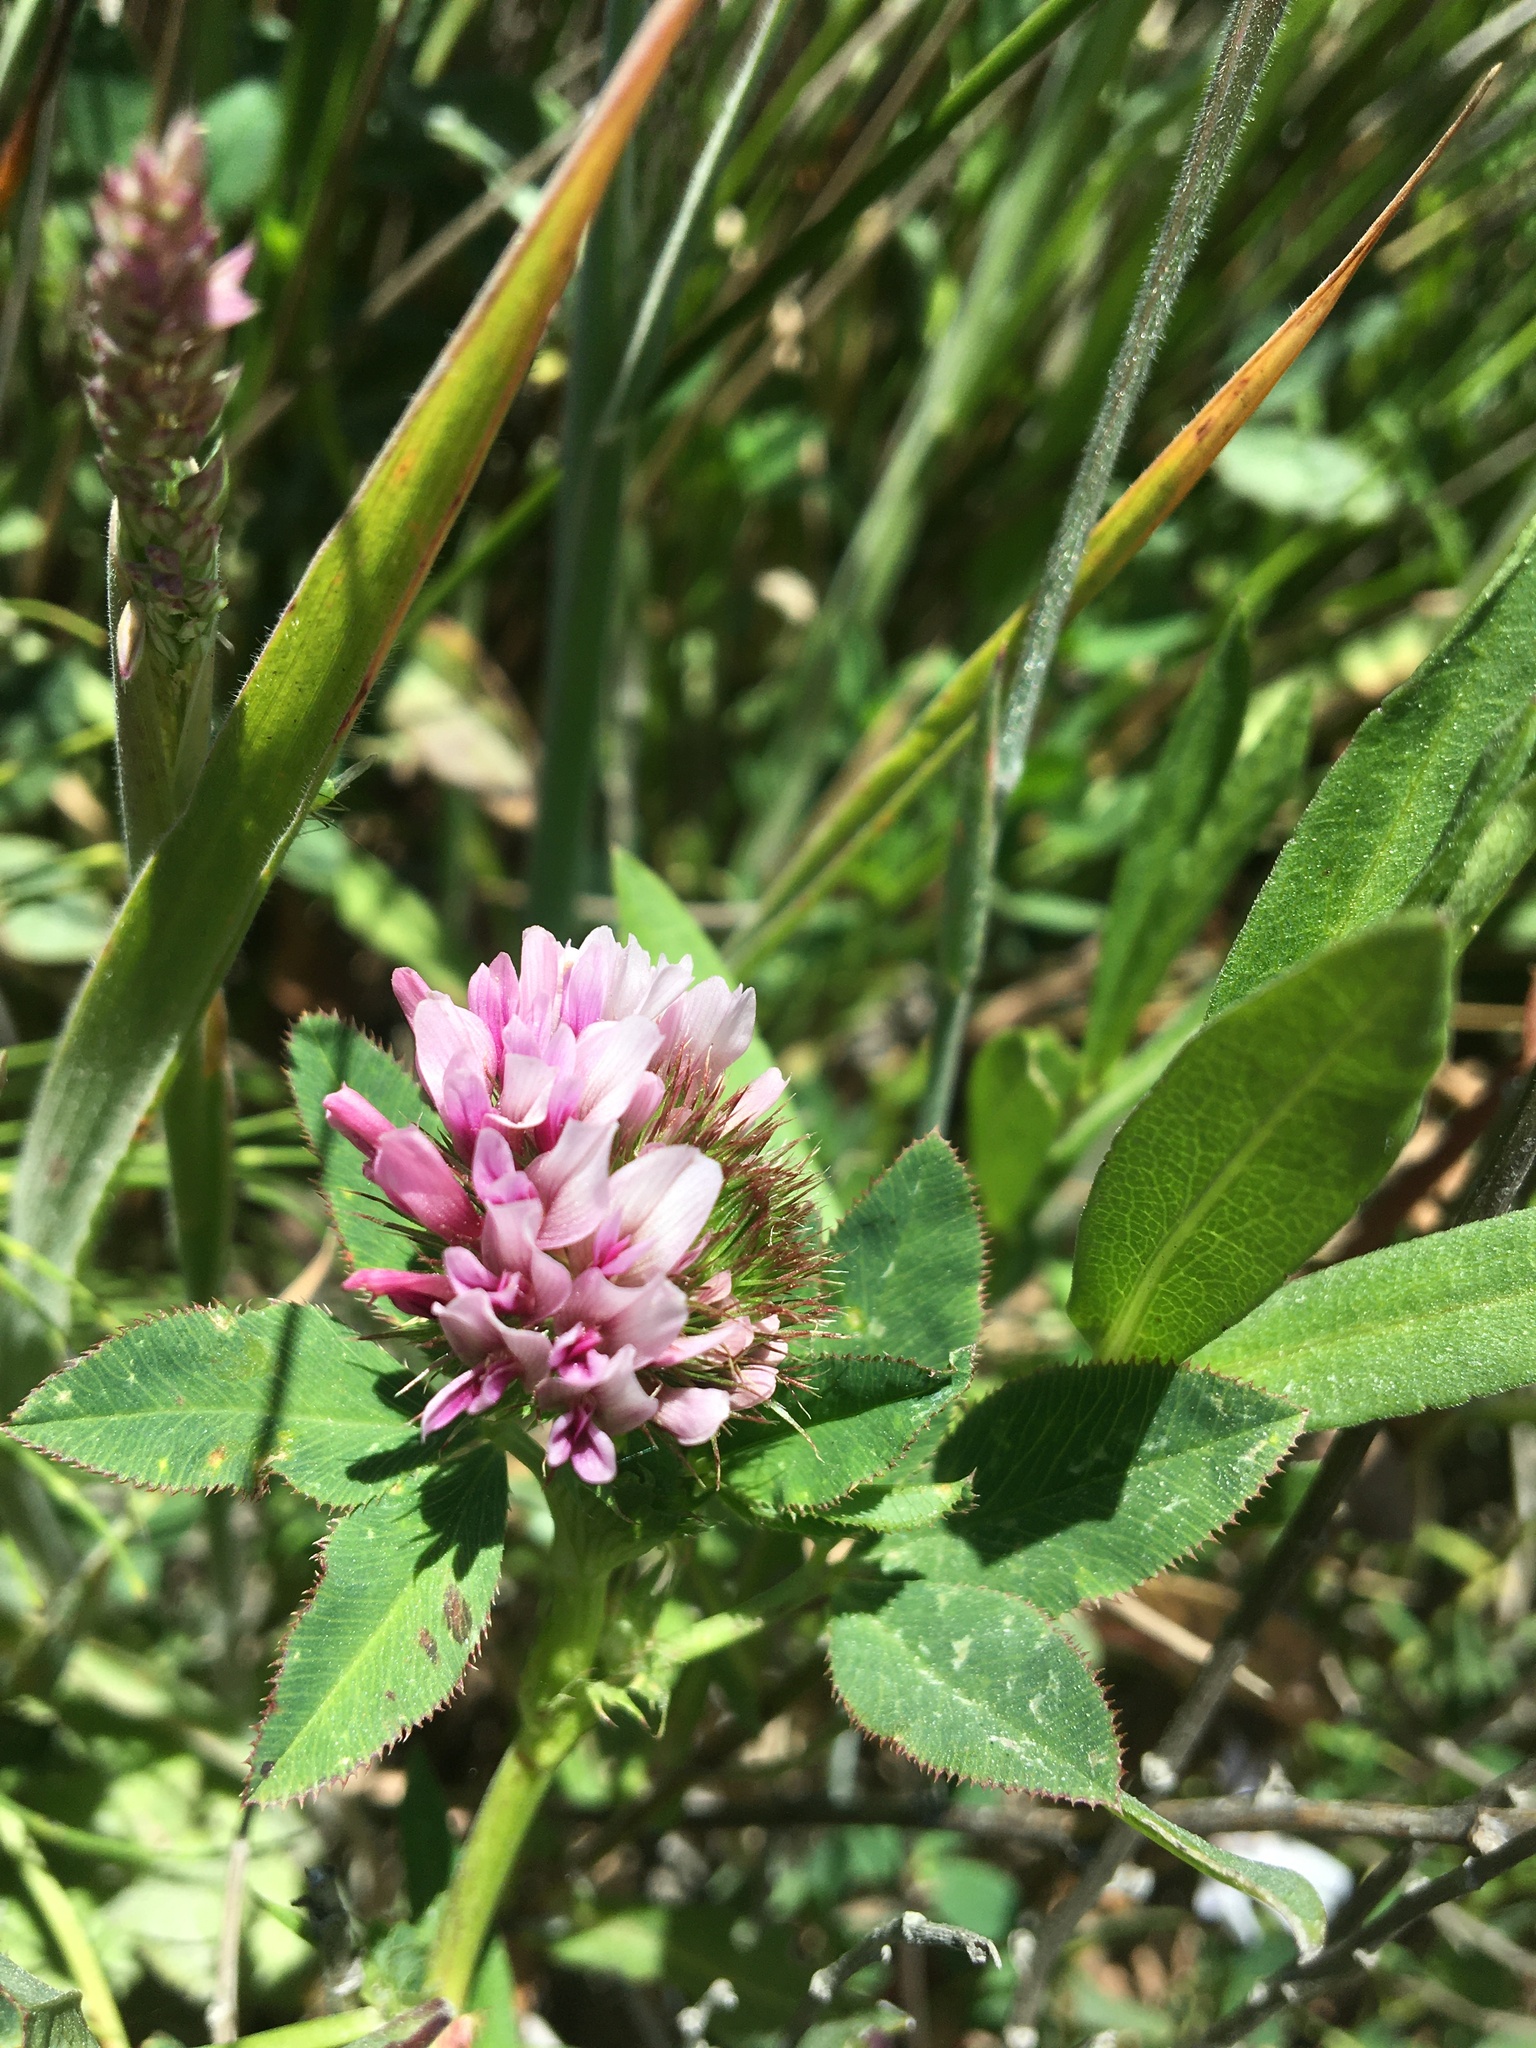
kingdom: Plantae
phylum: Tracheophyta
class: Magnoliopsida
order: Fabales
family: Fabaceae
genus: Trifolium
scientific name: Trifolium wormskioldii
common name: Springbank clover
